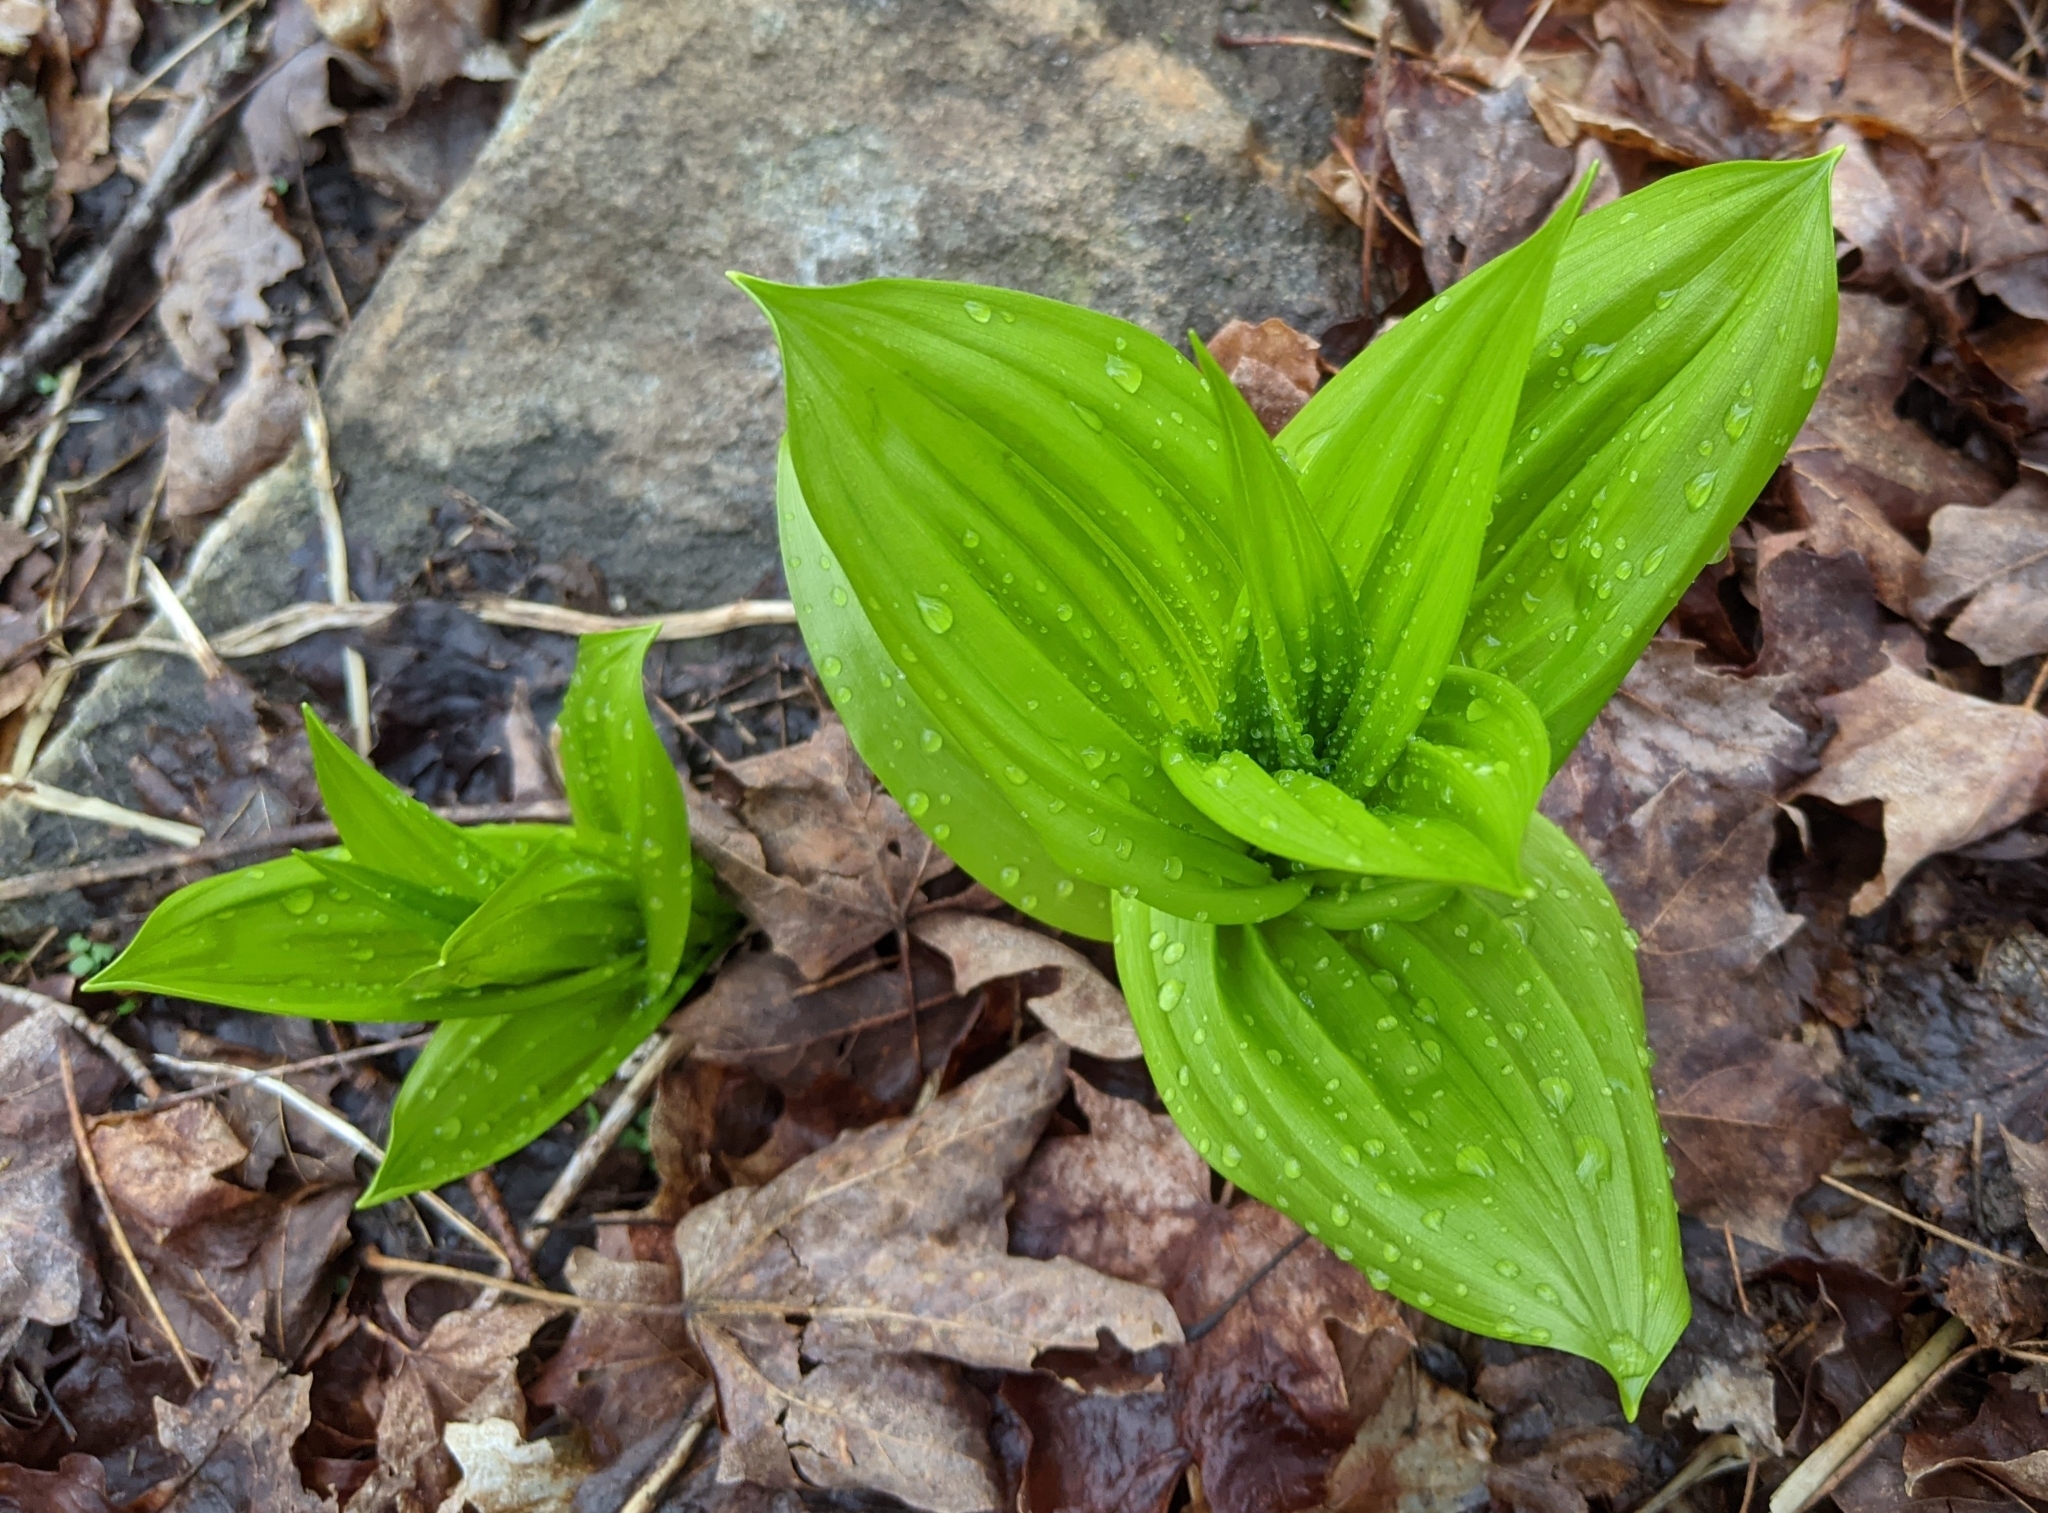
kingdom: Plantae
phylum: Tracheophyta
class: Liliopsida
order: Liliales
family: Melanthiaceae
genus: Veratrum
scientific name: Veratrum viride
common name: American false hellebore
